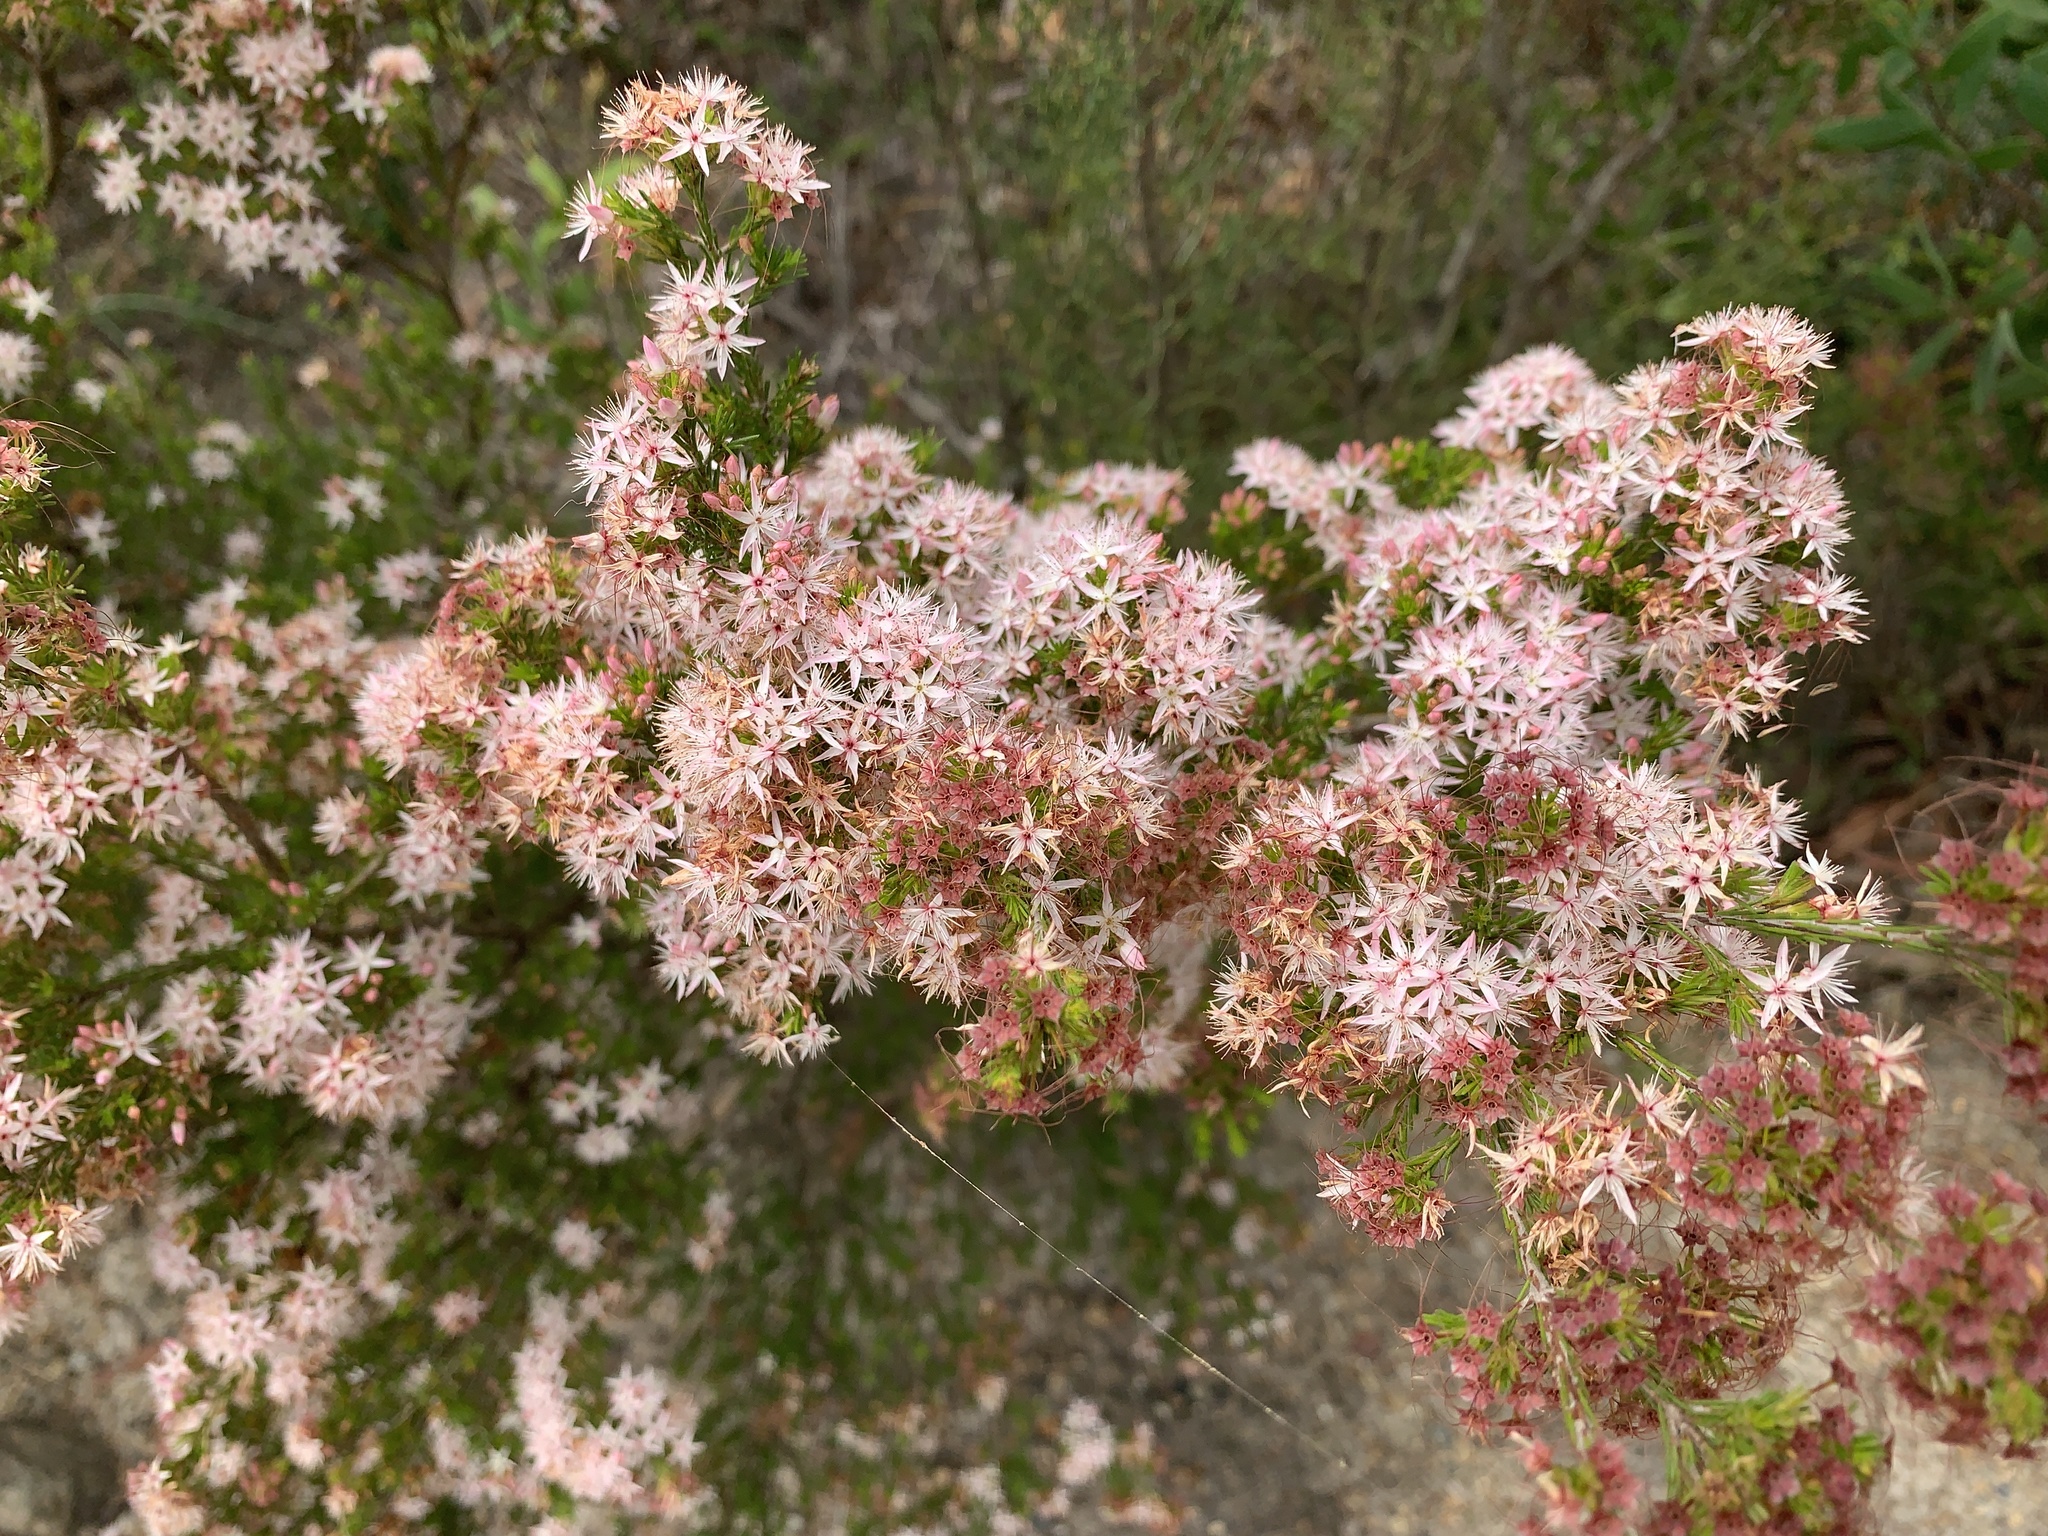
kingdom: Plantae
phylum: Tracheophyta
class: Magnoliopsida
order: Myrtales
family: Myrtaceae
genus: Calytrix
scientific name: Calytrix tetragona
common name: Common fringe myrtle
